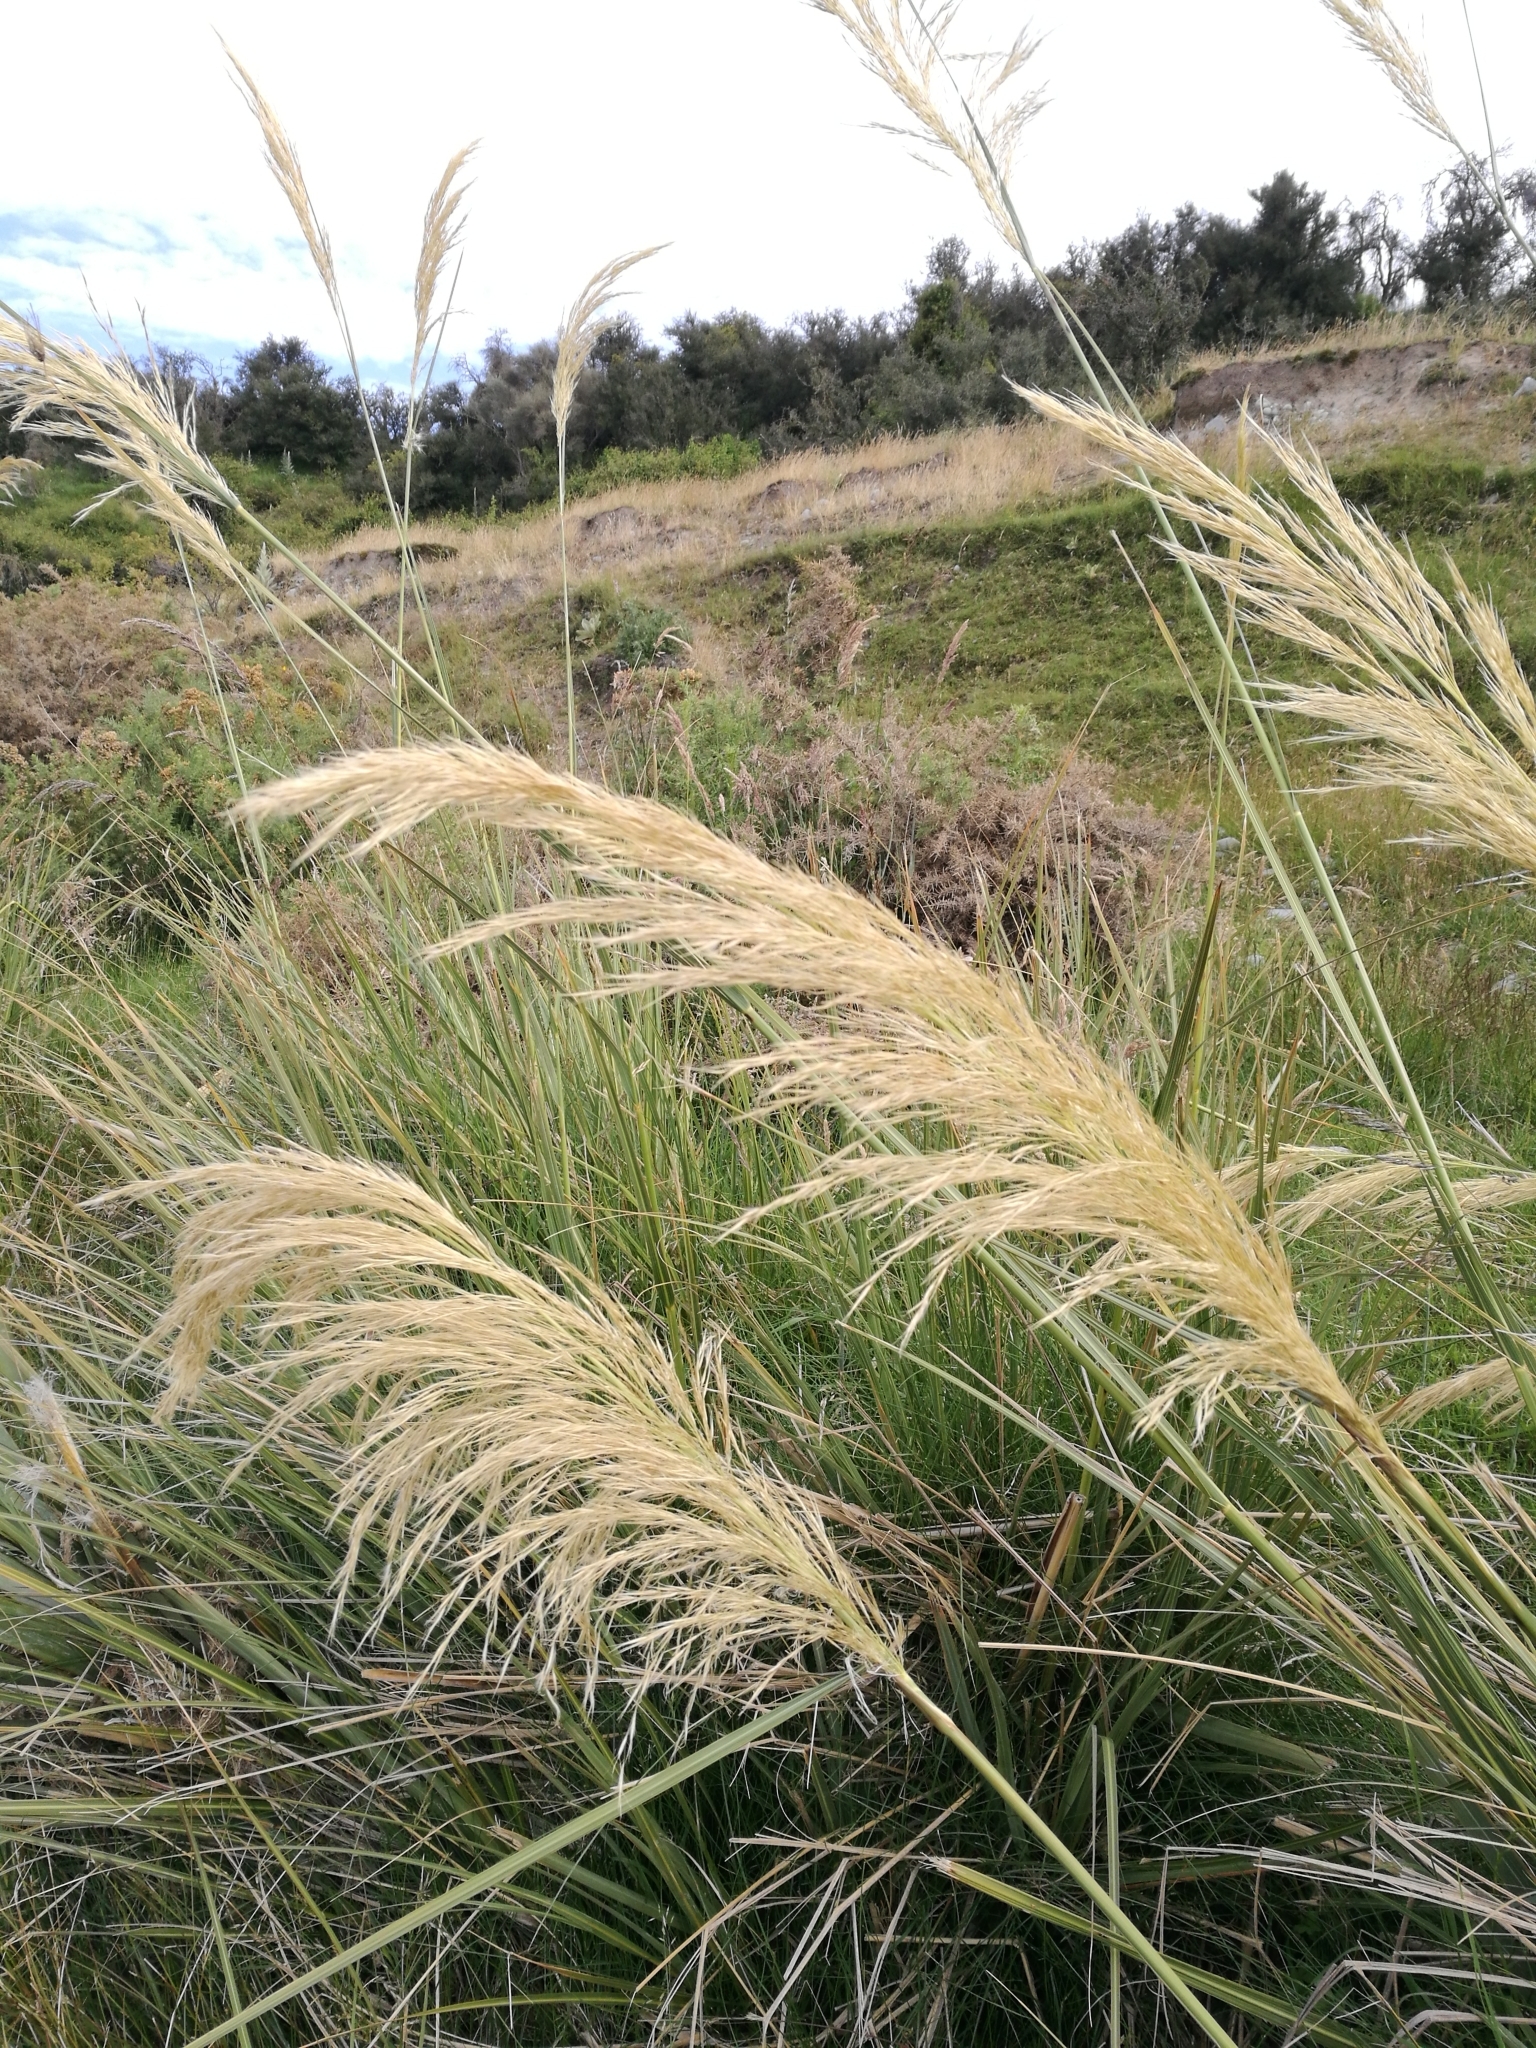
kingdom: Plantae
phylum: Tracheophyta
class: Liliopsida
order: Poales
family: Poaceae
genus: Austroderia
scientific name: Austroderia richardii
